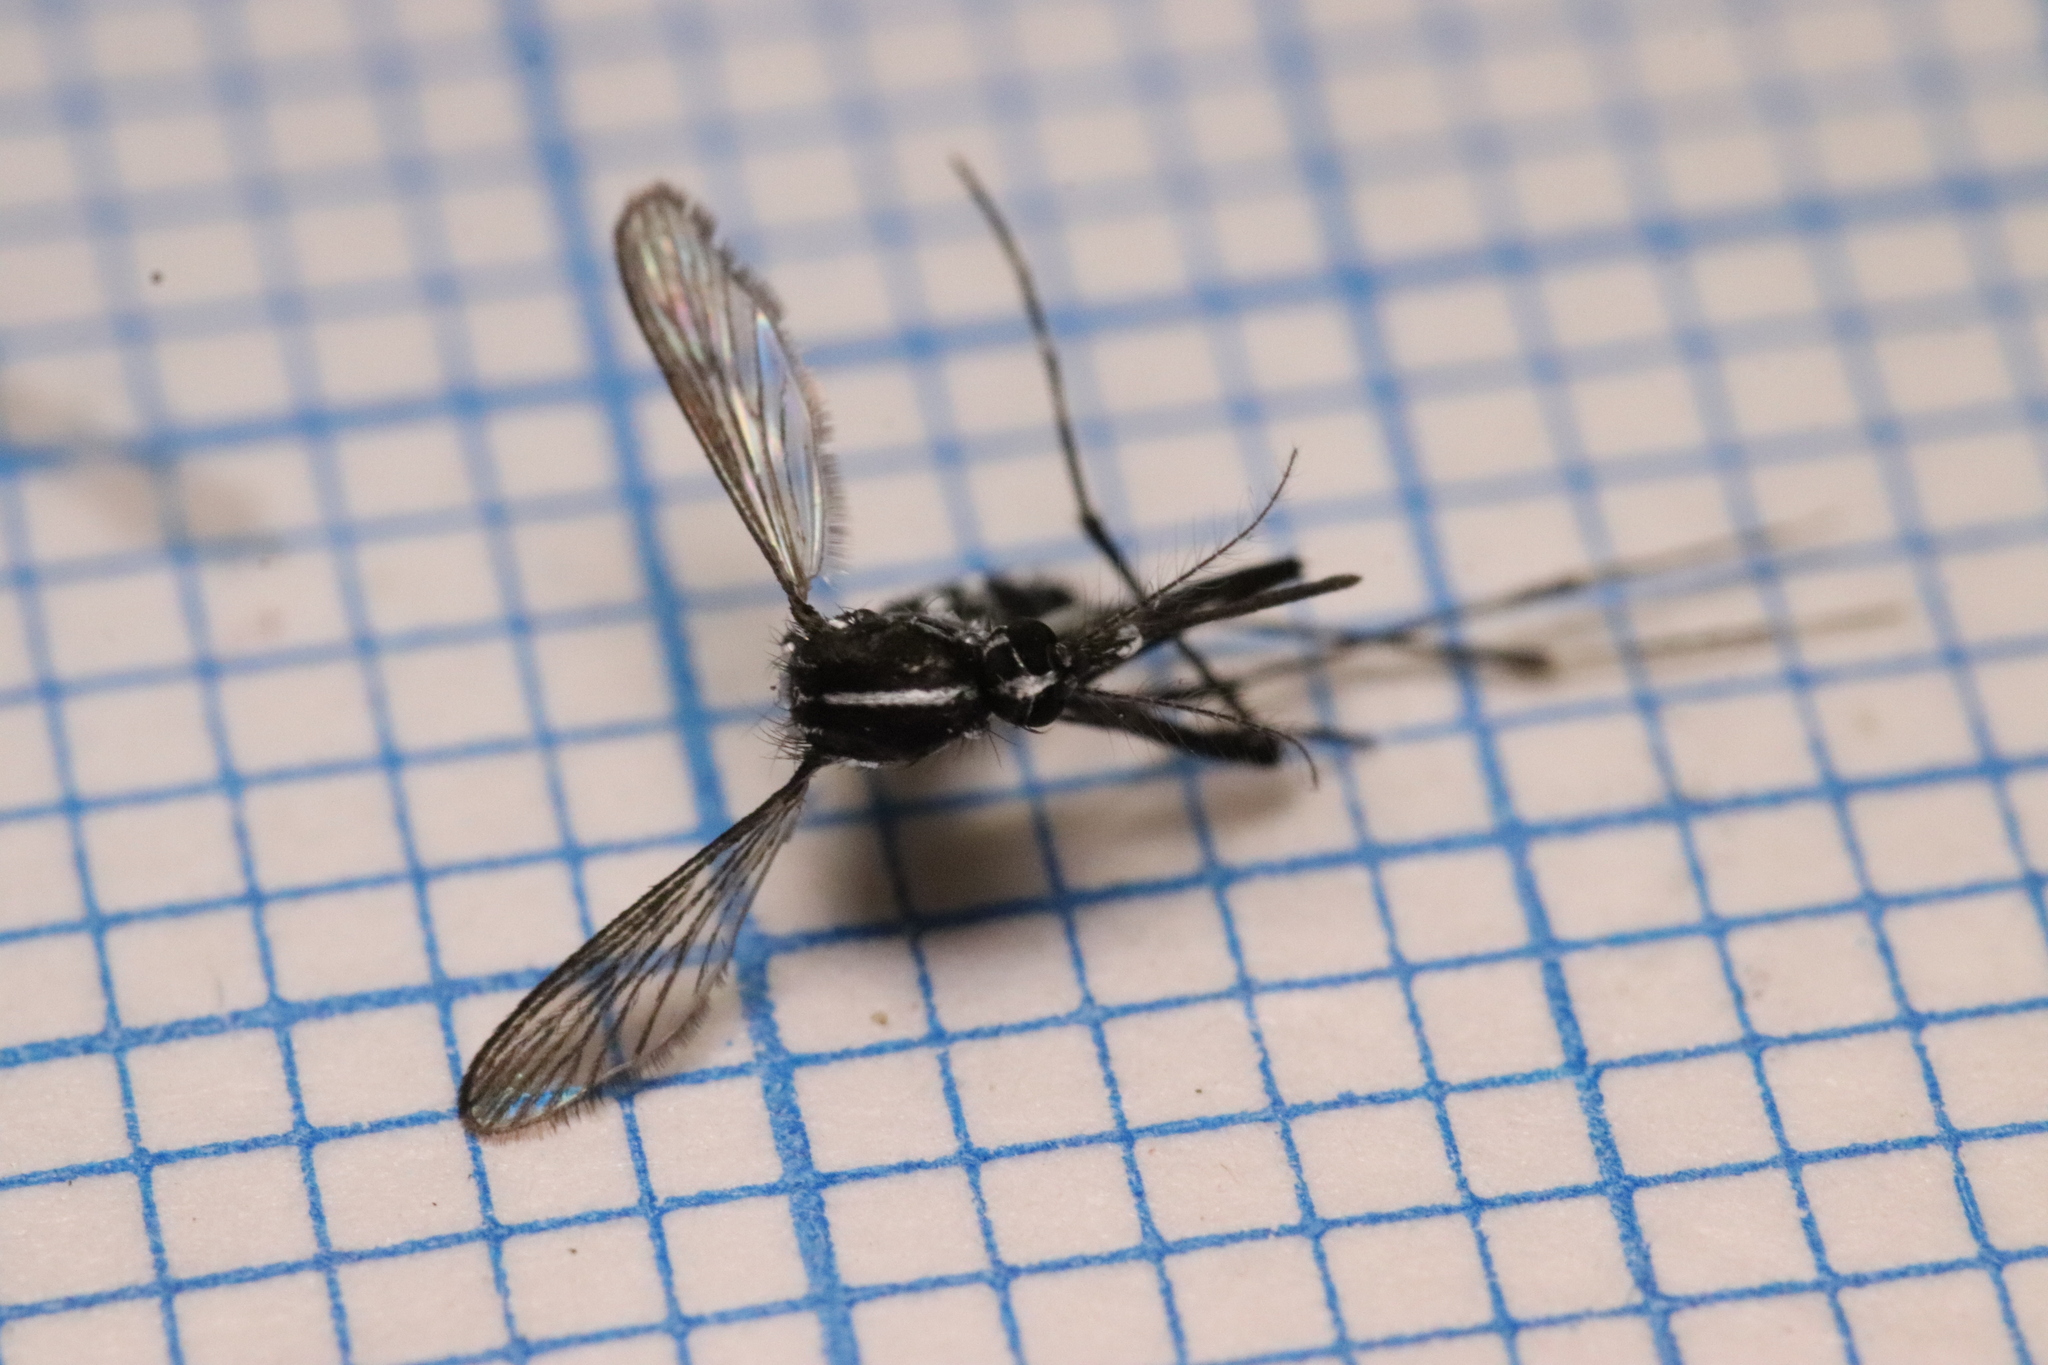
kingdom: Animalia
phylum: Arthropoda
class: Insecta
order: Diptera
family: Culicidae
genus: Aedes
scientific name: Aedes albopictus
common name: Tiger mosquito
